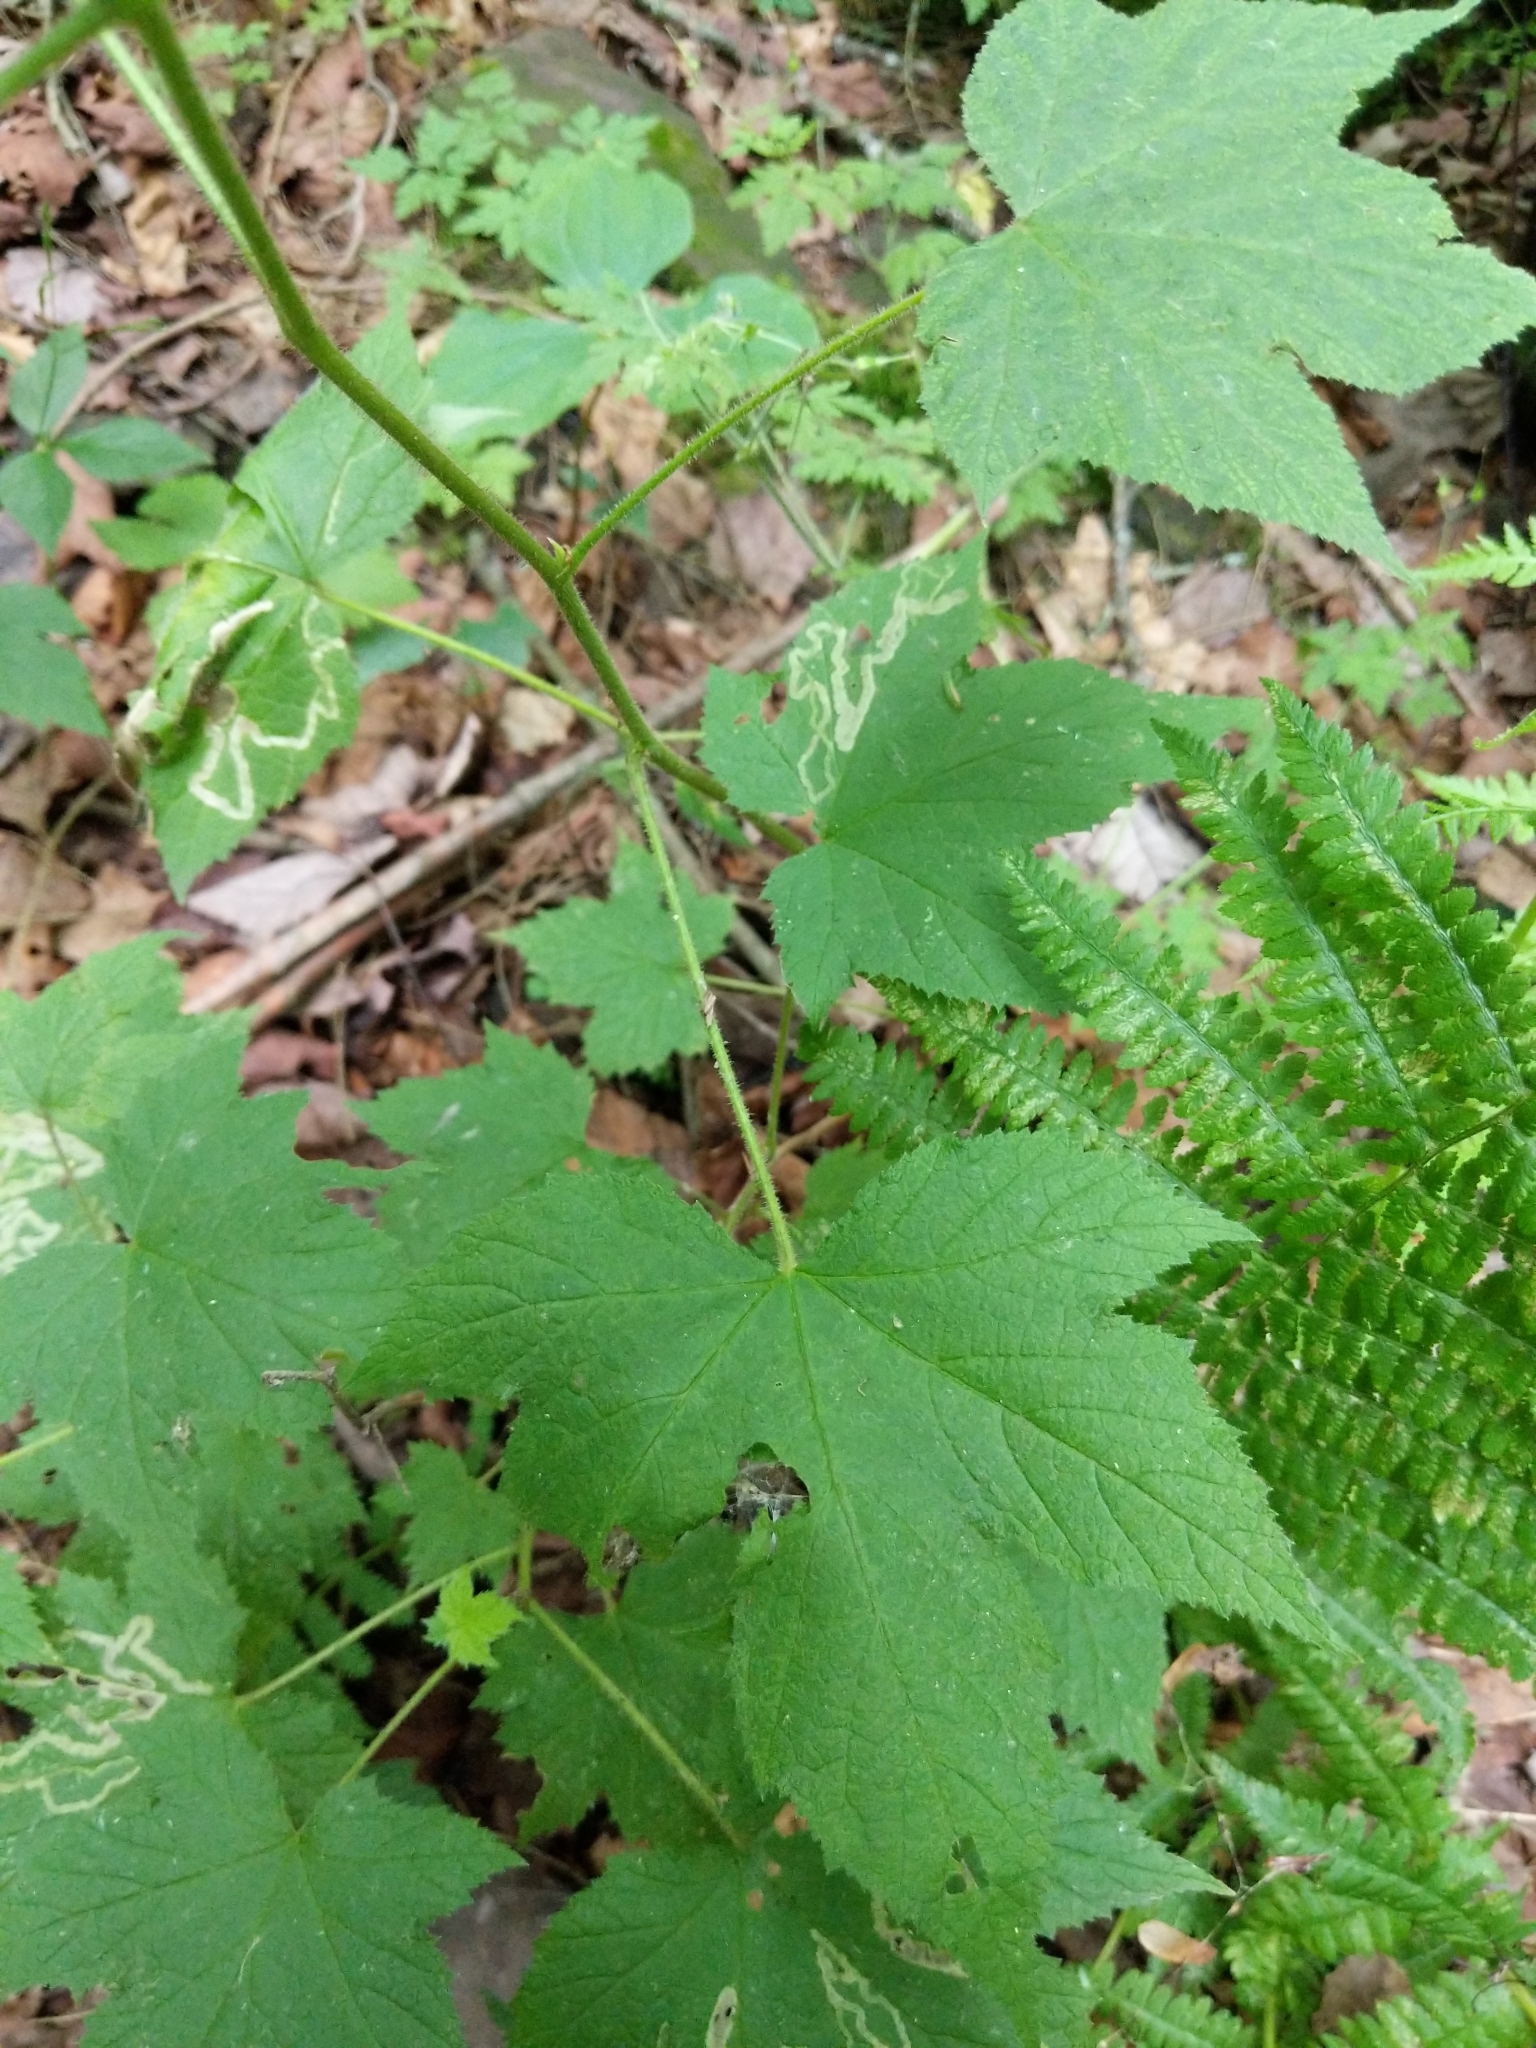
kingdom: Plantae
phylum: Tracheophyta
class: Magnoliopsida
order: Rosales
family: Rosaceae
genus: Rubus
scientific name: Rubus odoratus
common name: Purple-flowered raspberry
